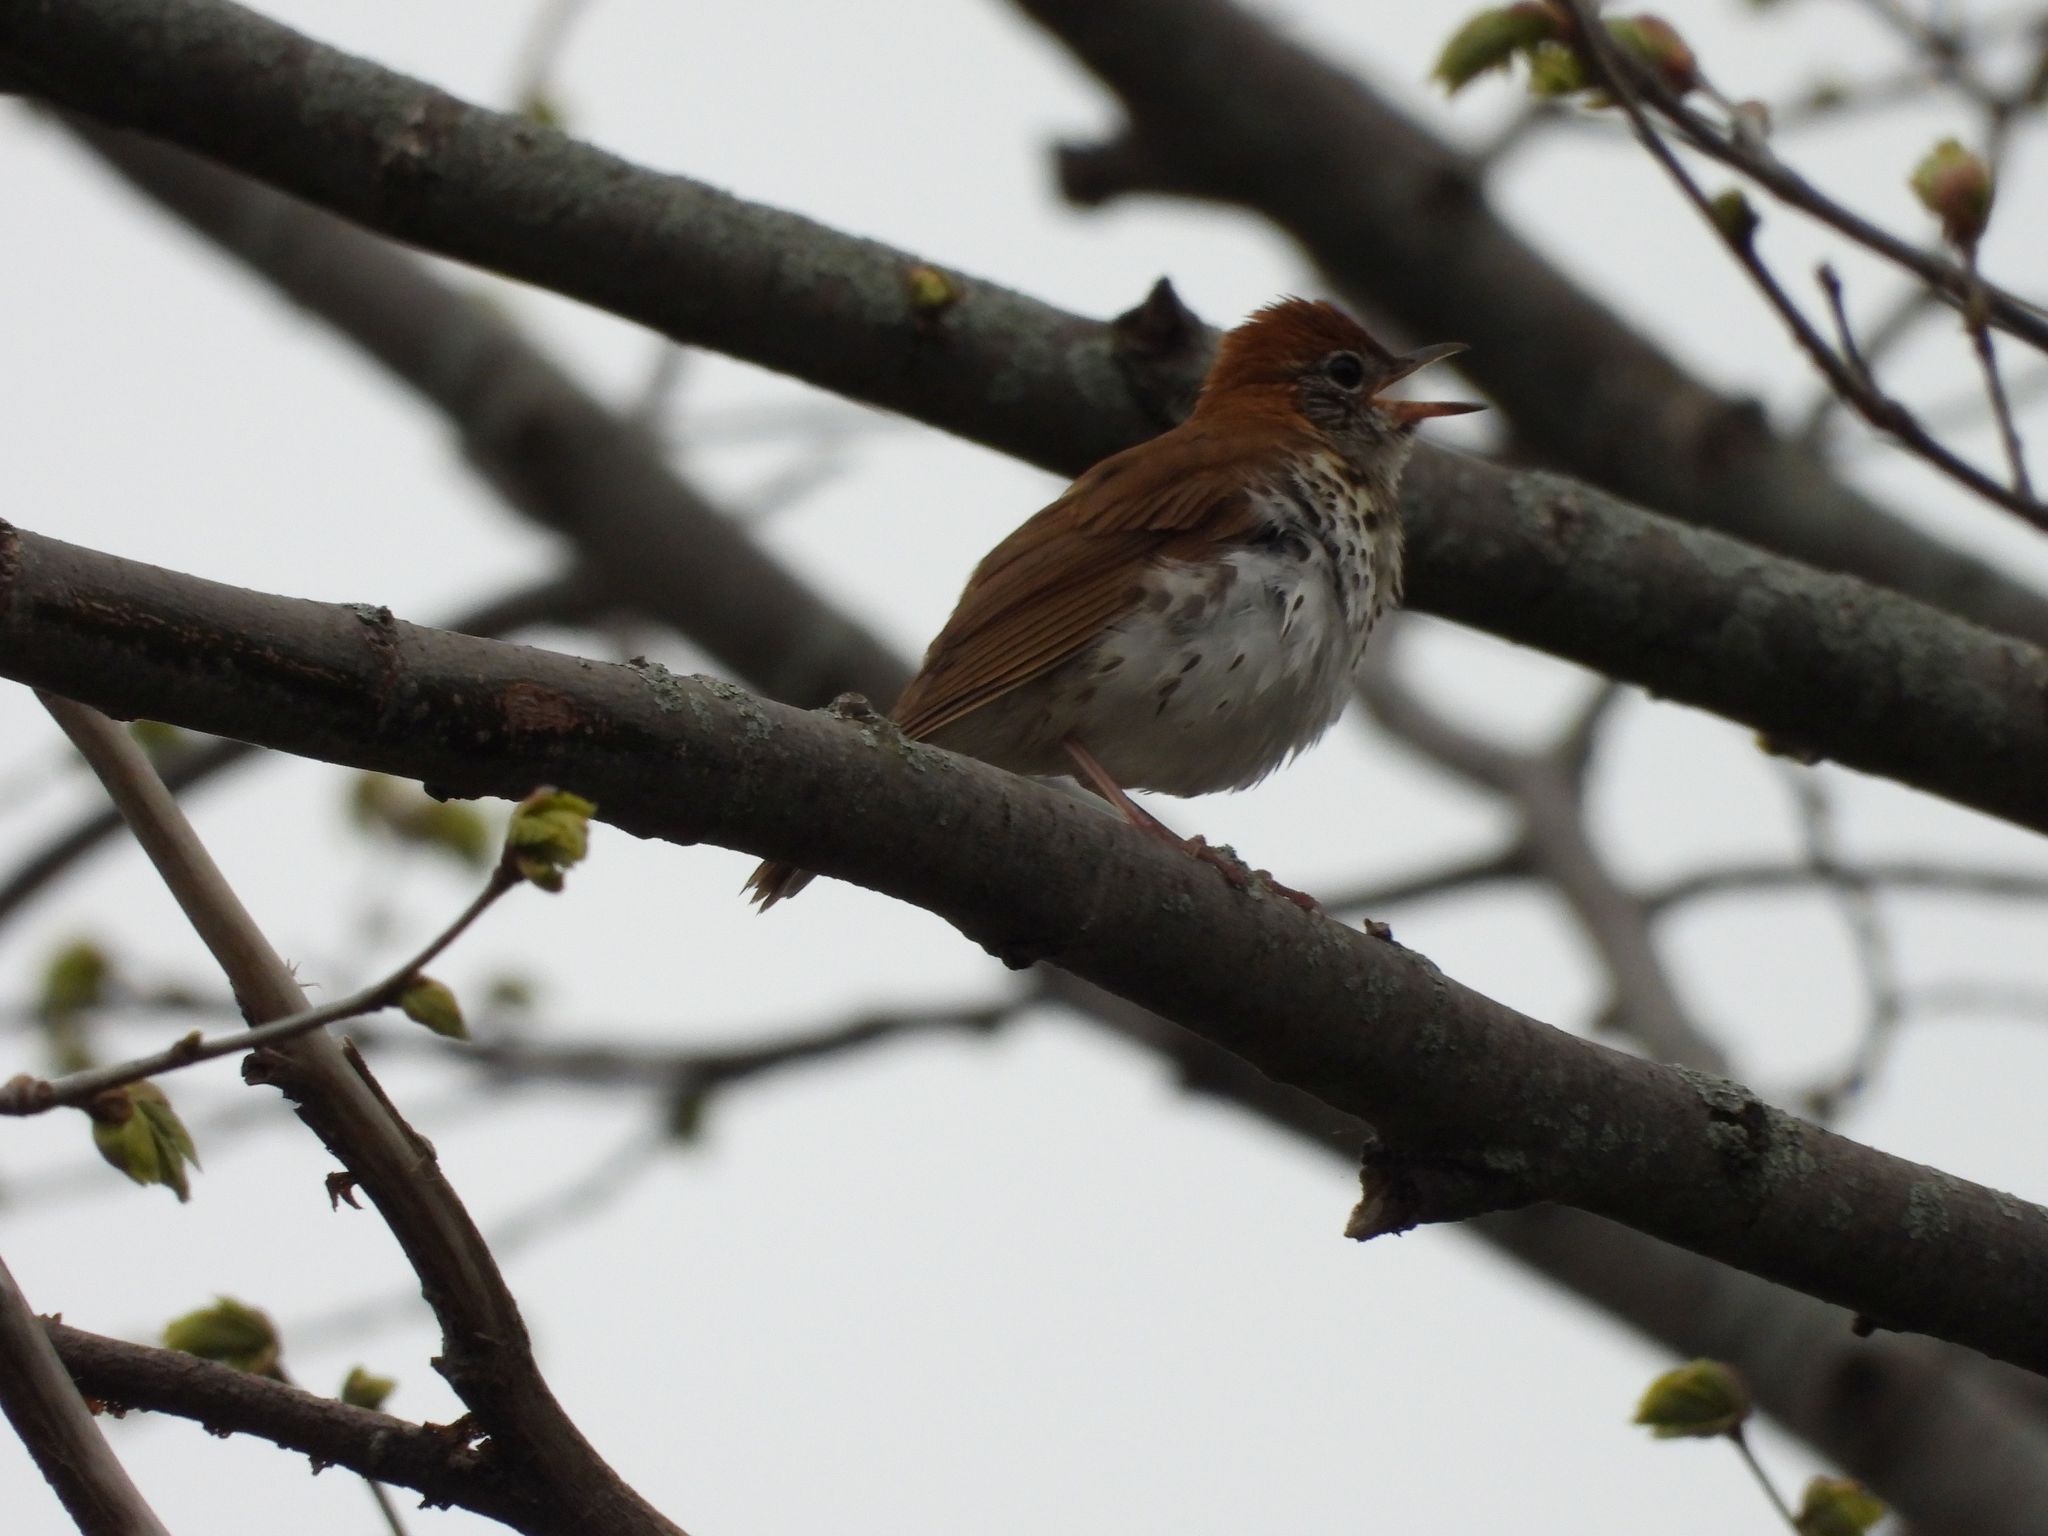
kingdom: Animalia
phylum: Chordata
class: Aves
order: Passeriformes
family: Turdidae
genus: Hylocichla
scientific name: Hylocichla mustelina
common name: Wood thrush
